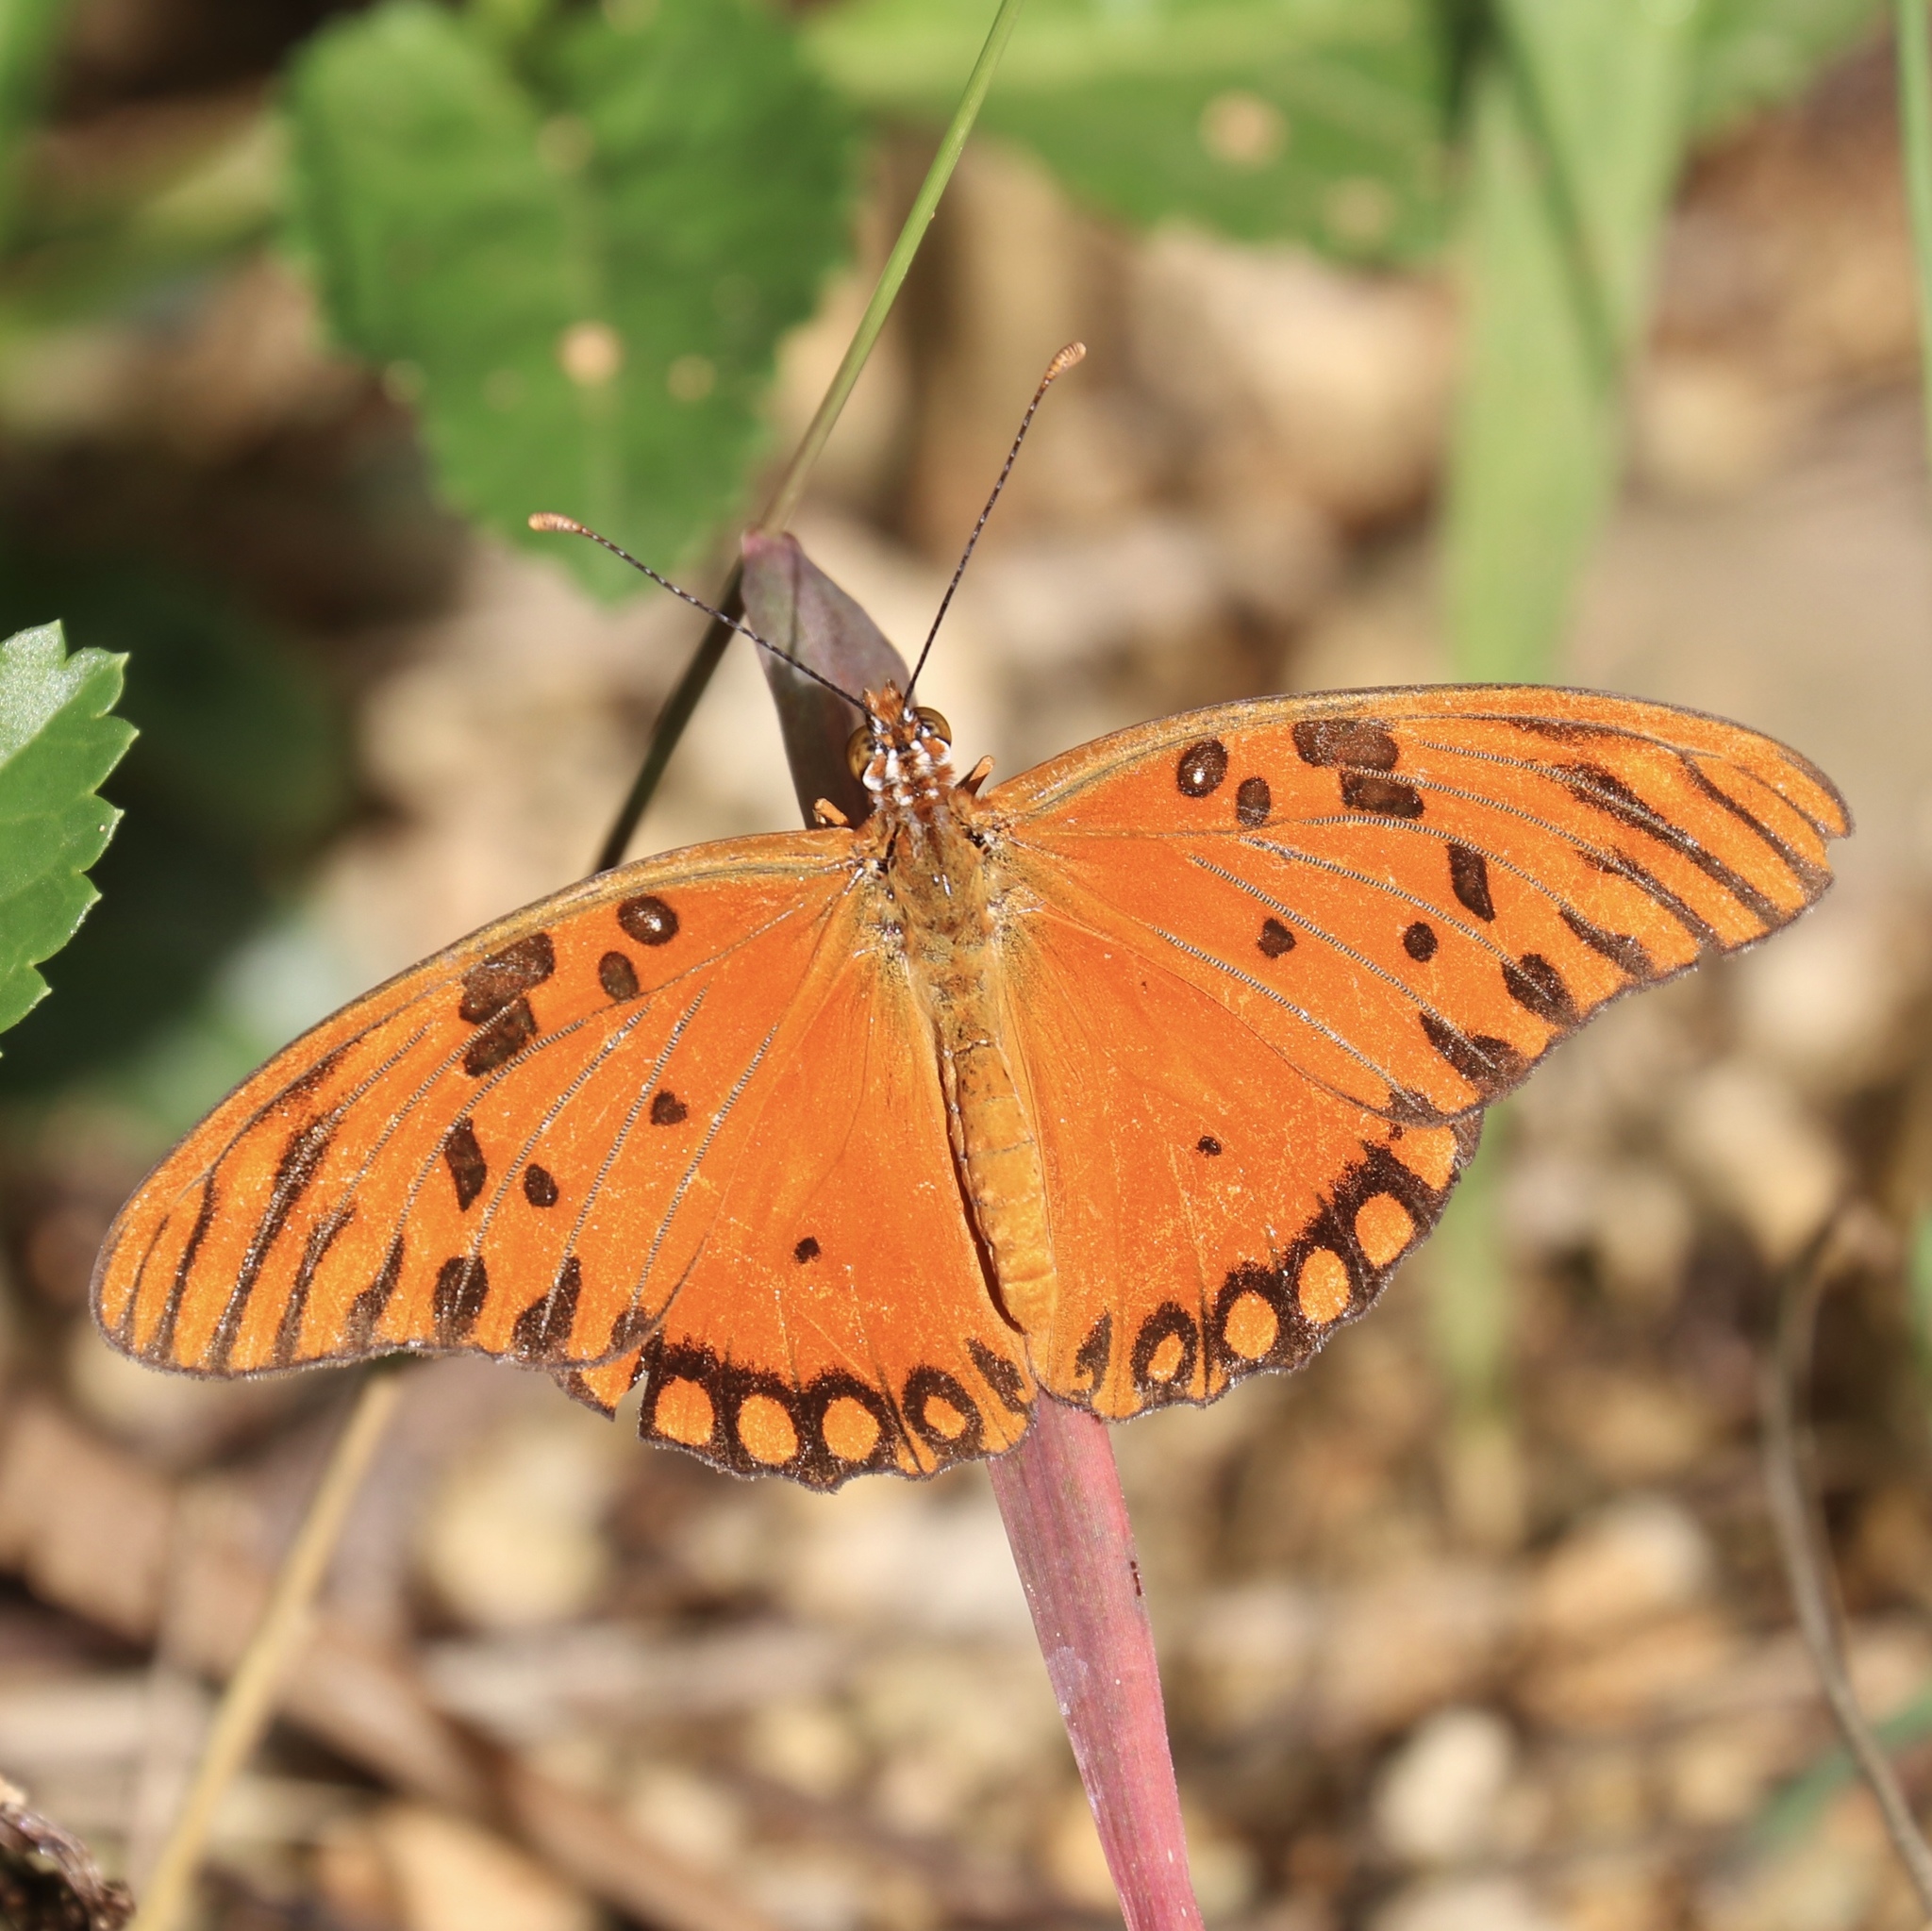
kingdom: Animalia
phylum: Arthropoda
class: Insecta
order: Lepidoptera
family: Nymphalidae
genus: Dione
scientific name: Dione vanillae
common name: Gulf fritillary
